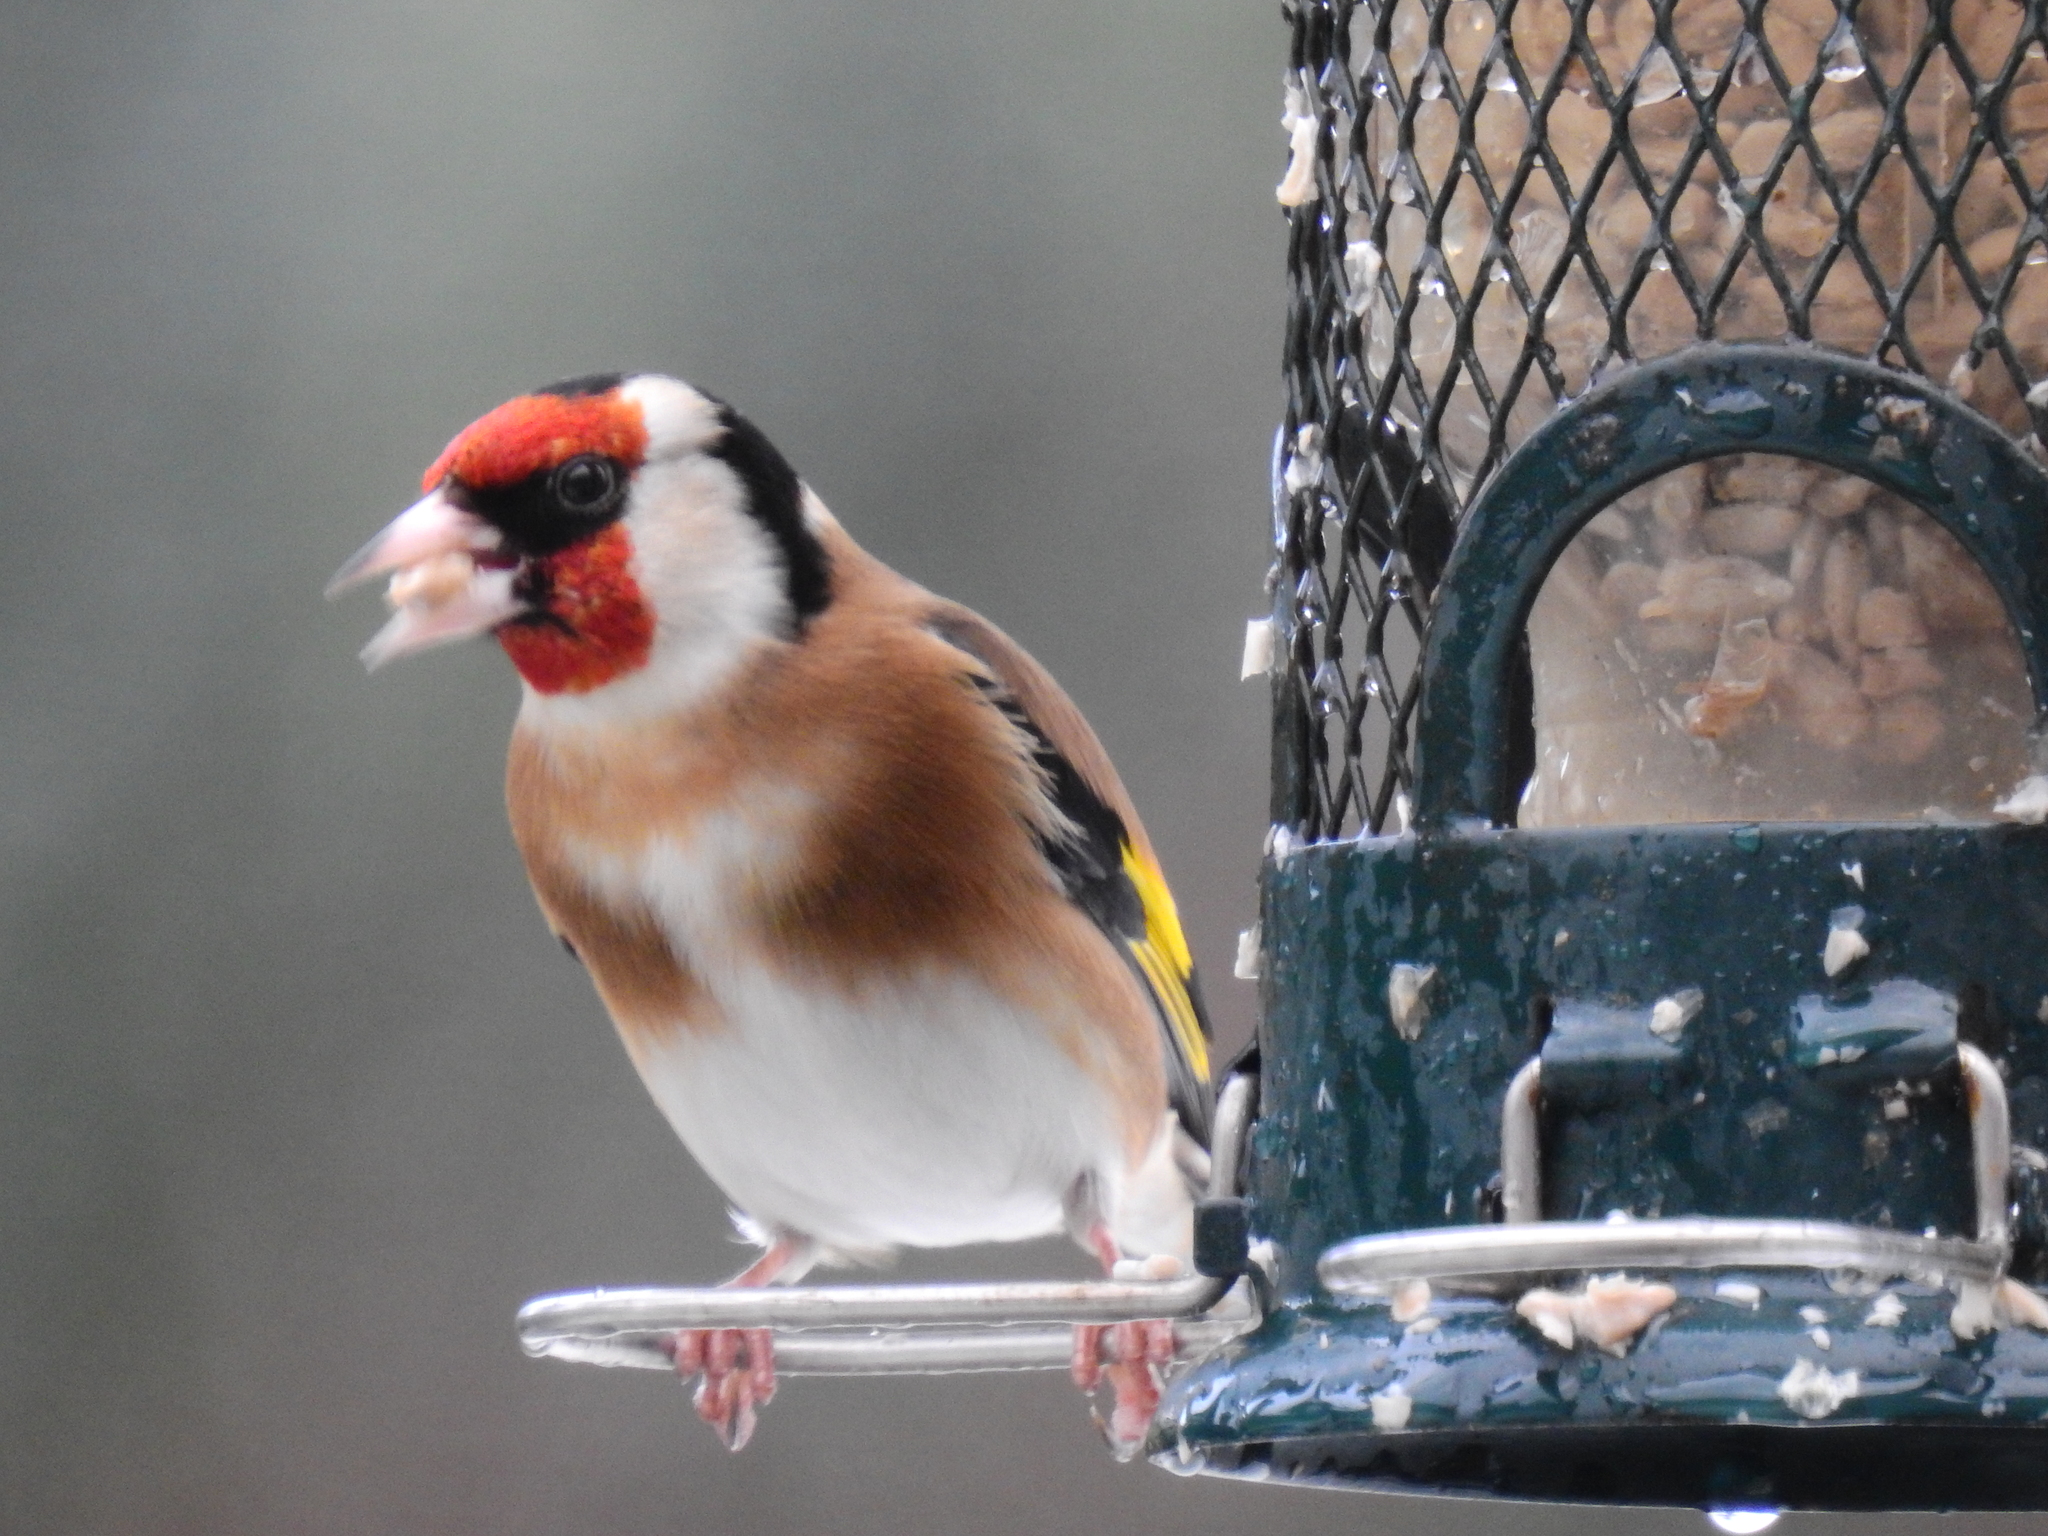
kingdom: Animalia
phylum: Chordata
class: Aves
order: Passeriformes
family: Fringillidae
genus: Carduelis
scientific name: Carduelis carduelis
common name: European goldfinch
